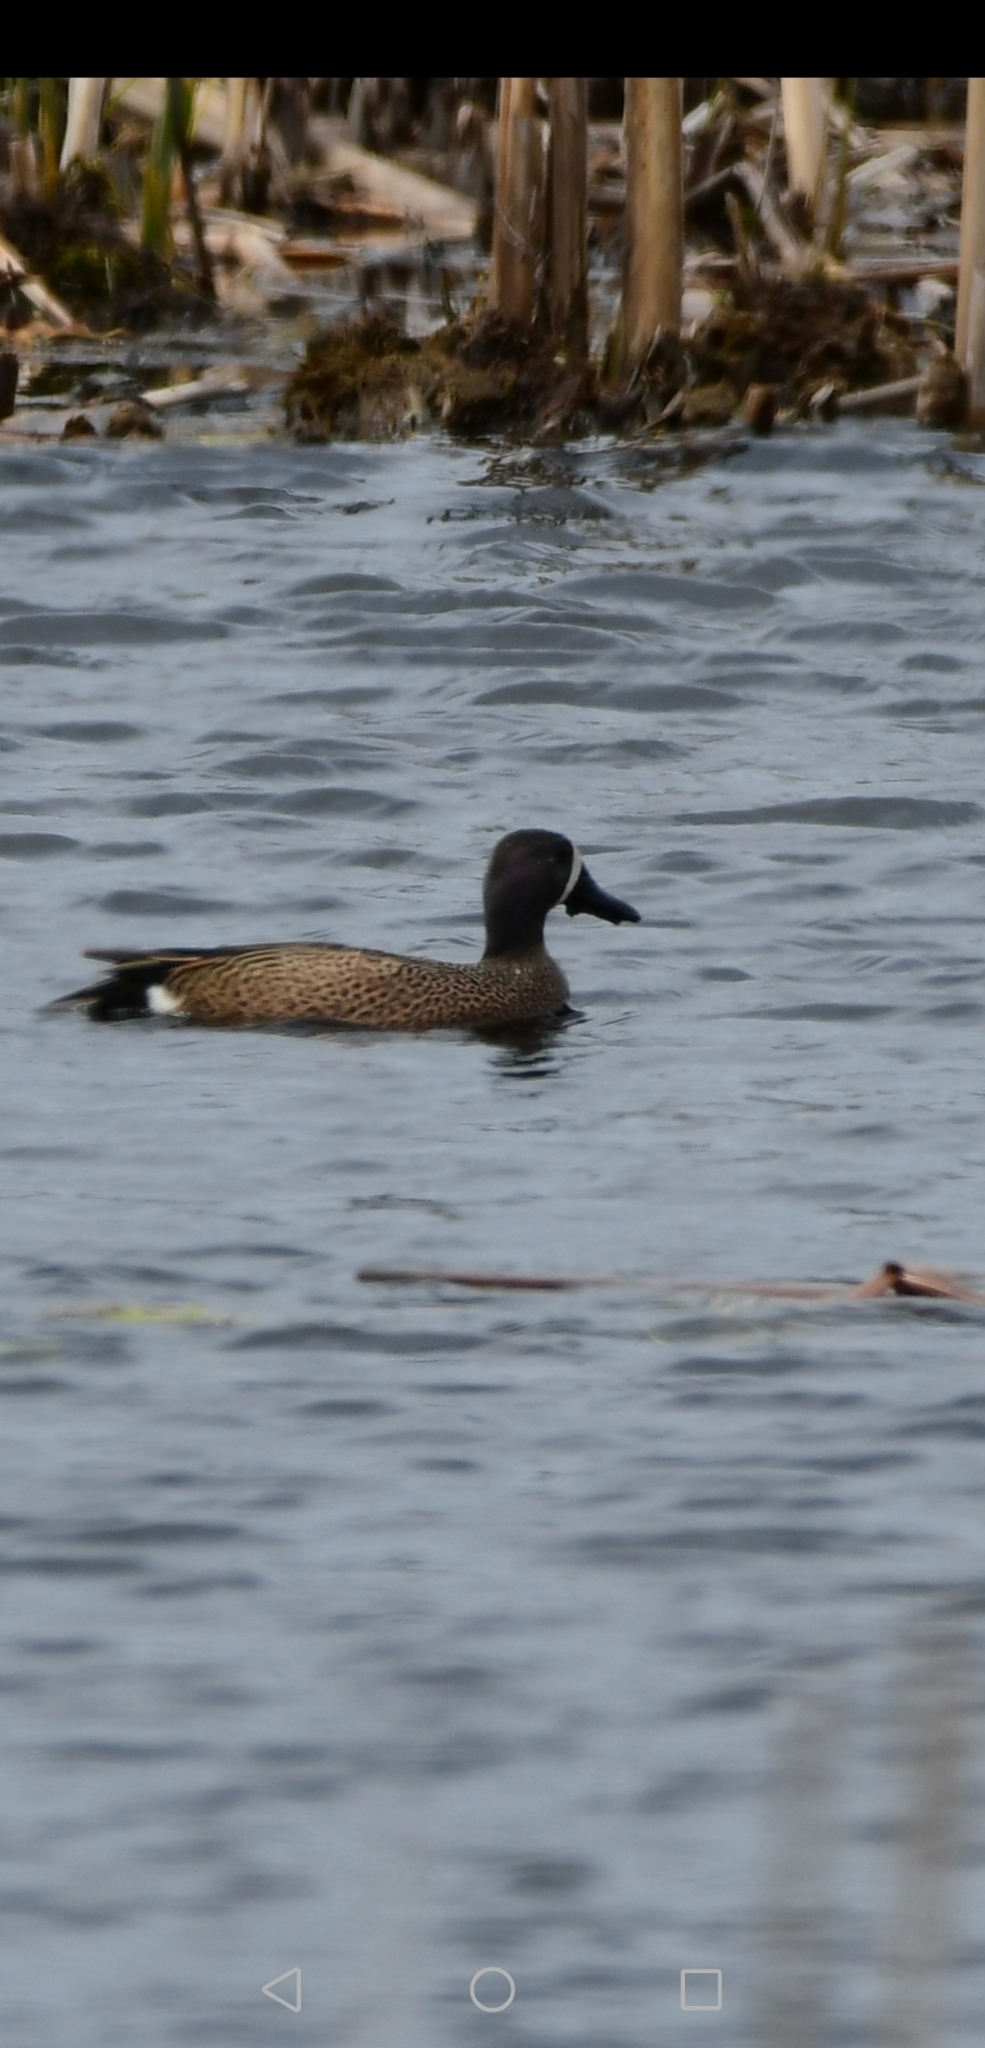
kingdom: Animalia
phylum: Chordata
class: Aves
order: Anseriformes
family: Anatidae
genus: Spatula
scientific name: Spatula discors
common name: Blue-winged teal
